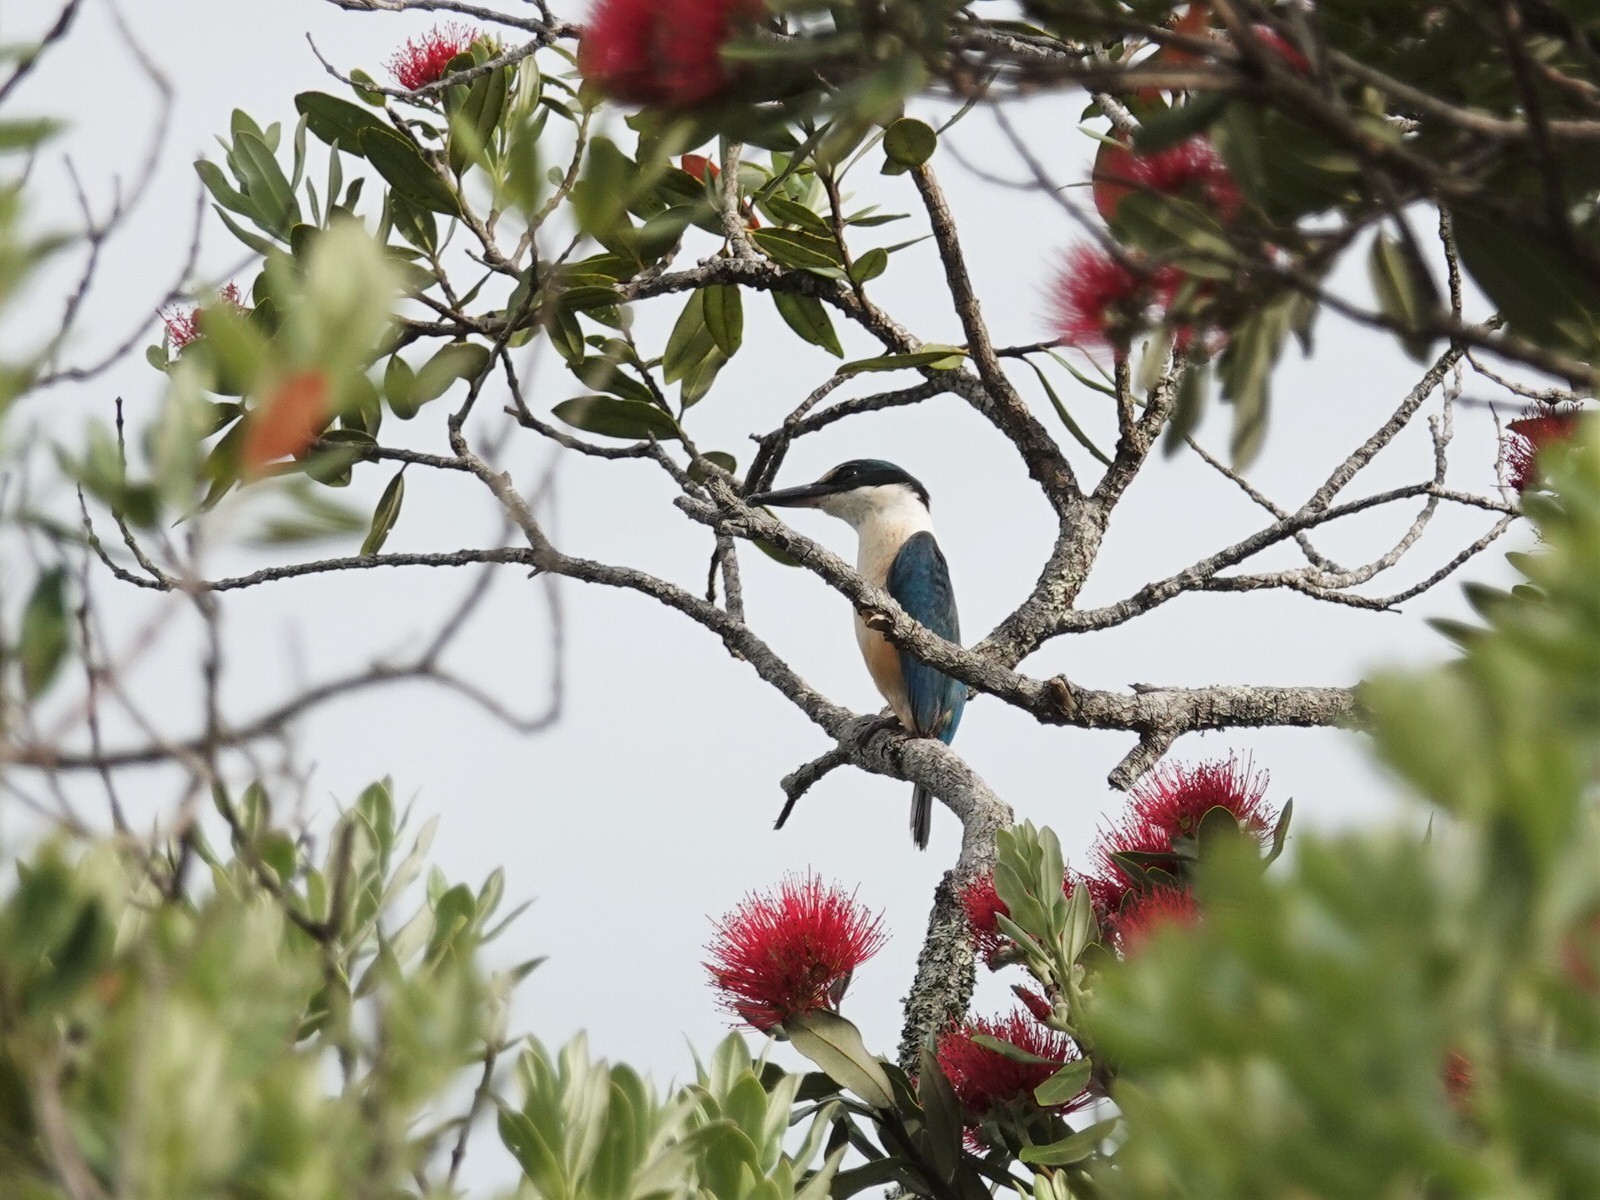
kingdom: Animalia
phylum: Chordata
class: Aves
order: Coraciiformes
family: Alcedinidae
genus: Todiramphus
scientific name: Todiramphus sanctus
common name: Sacred kingfisher
